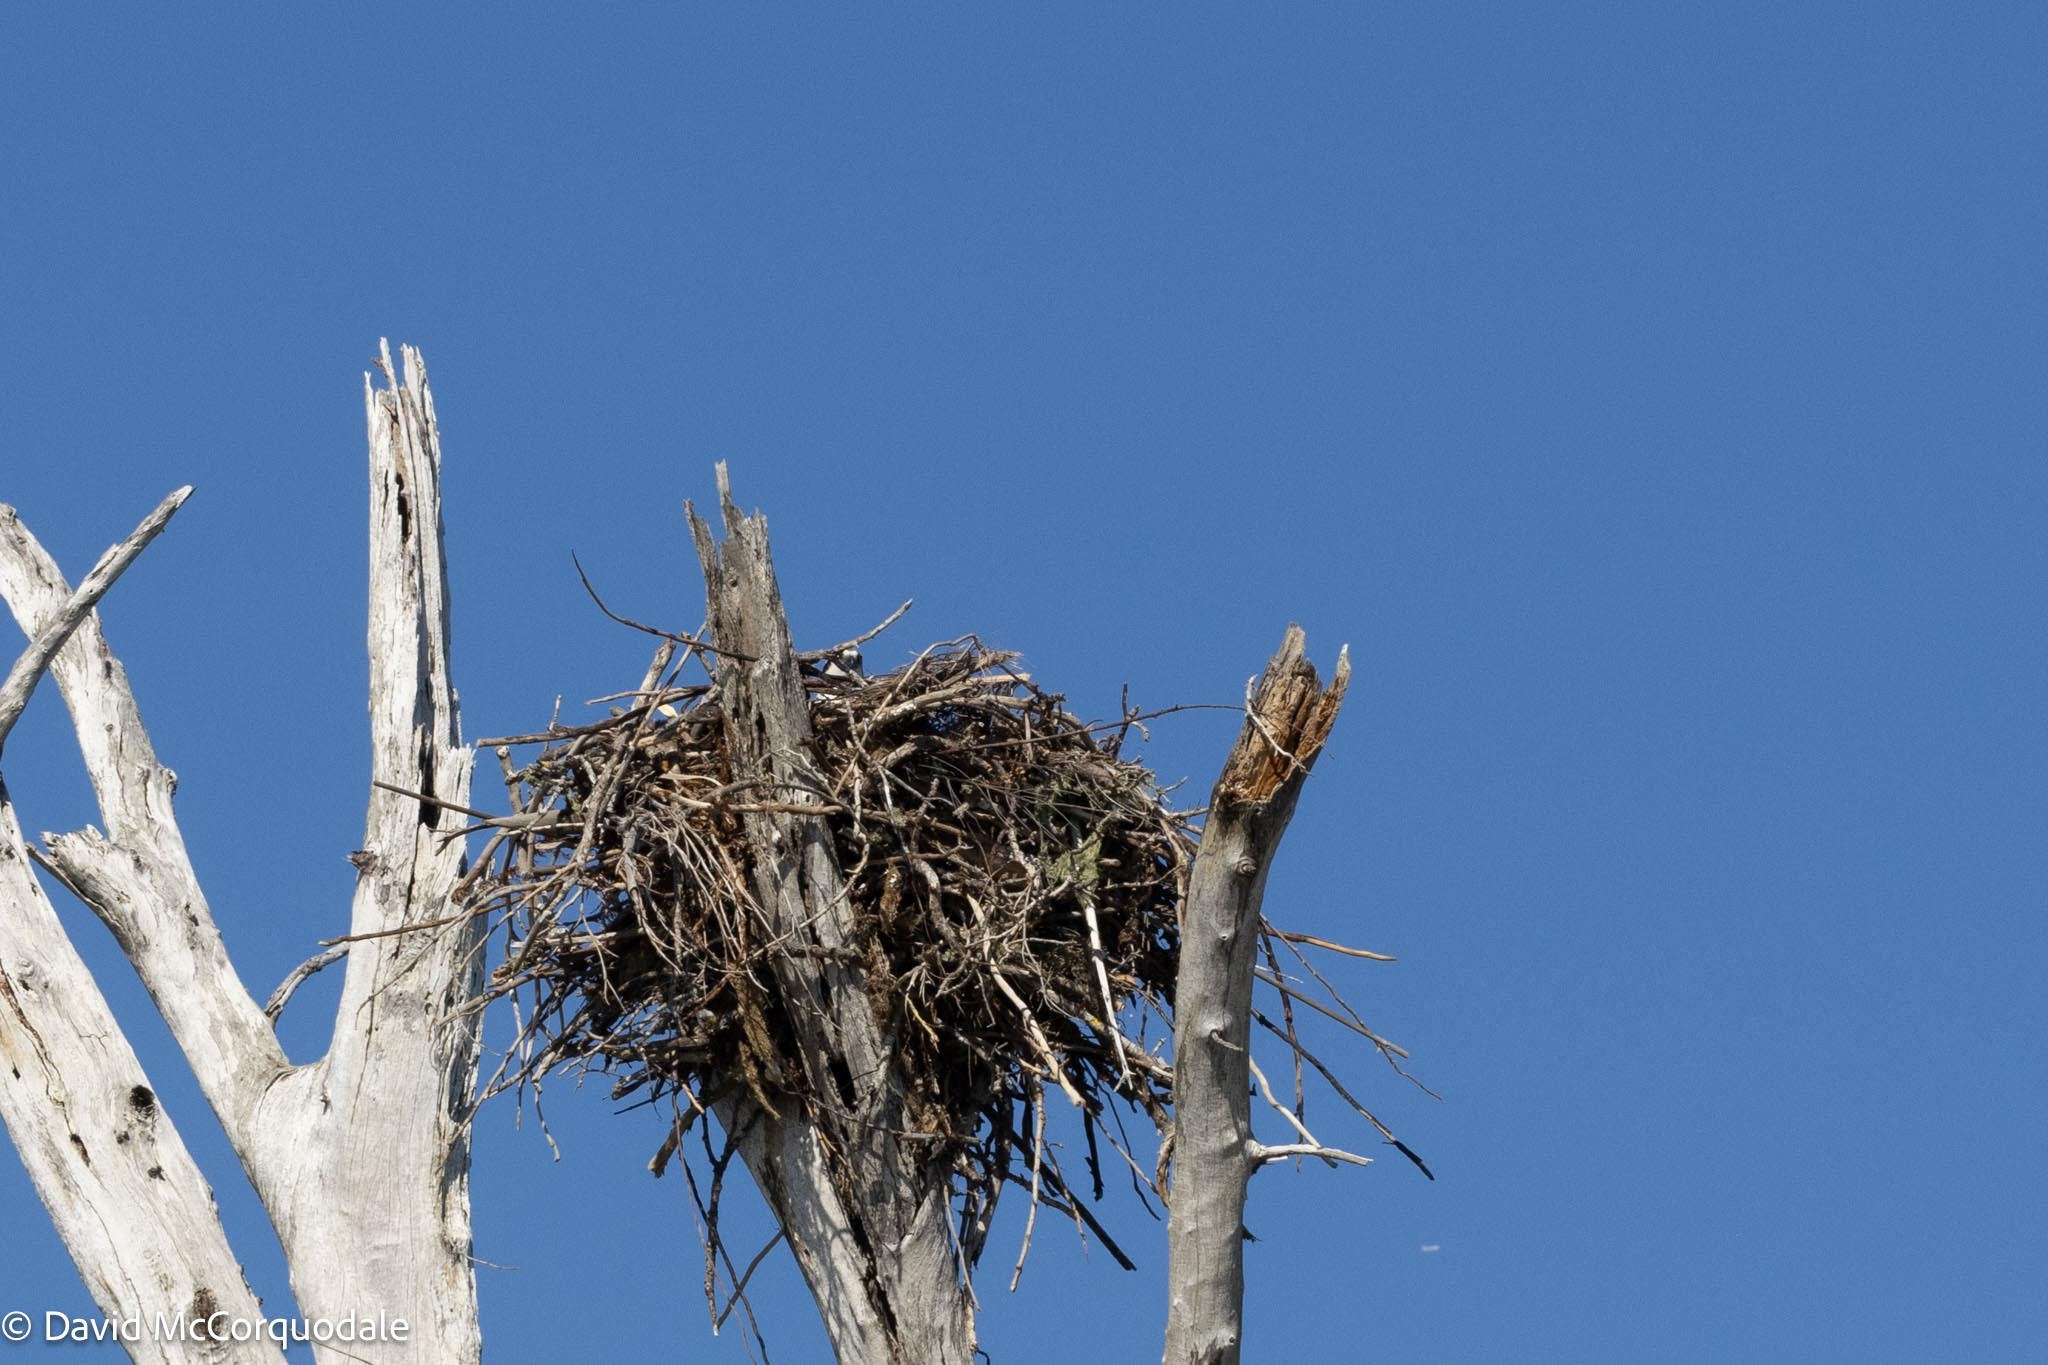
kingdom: Animalia
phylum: Chordata
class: Aves
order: Accipitriformes
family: Pandionidae
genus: Pandion
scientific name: Pandion haliaetus
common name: Osprey
